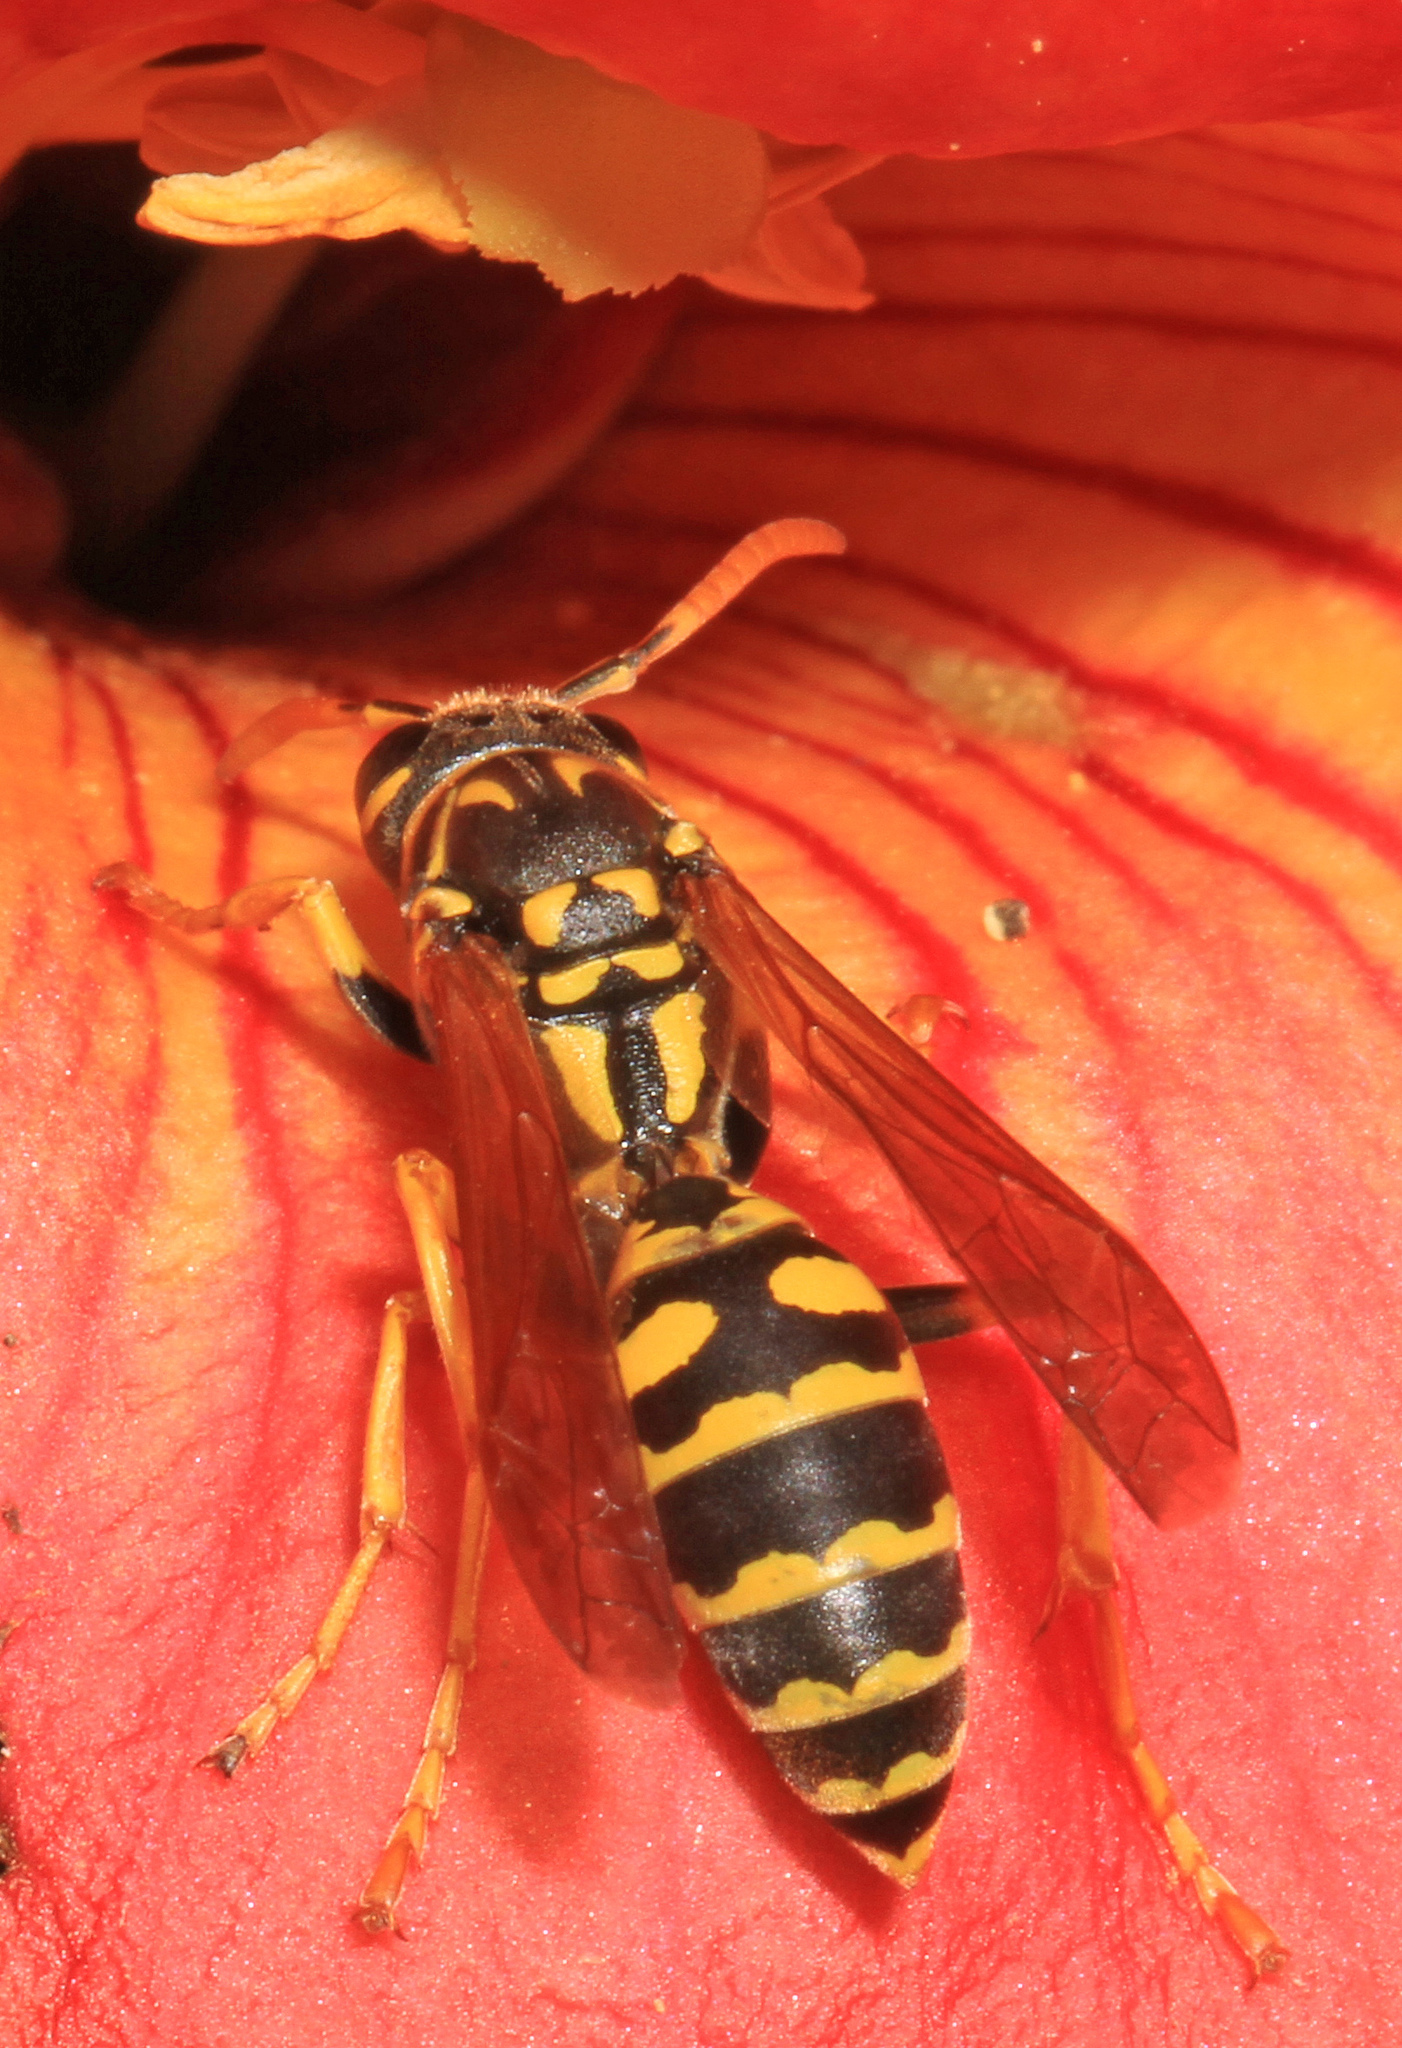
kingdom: Animalia
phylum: Arthropoda
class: Insecta
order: Hymenoptera
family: Eumenidae
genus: Polistes
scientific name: Polistes dominula
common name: Paper wasp
